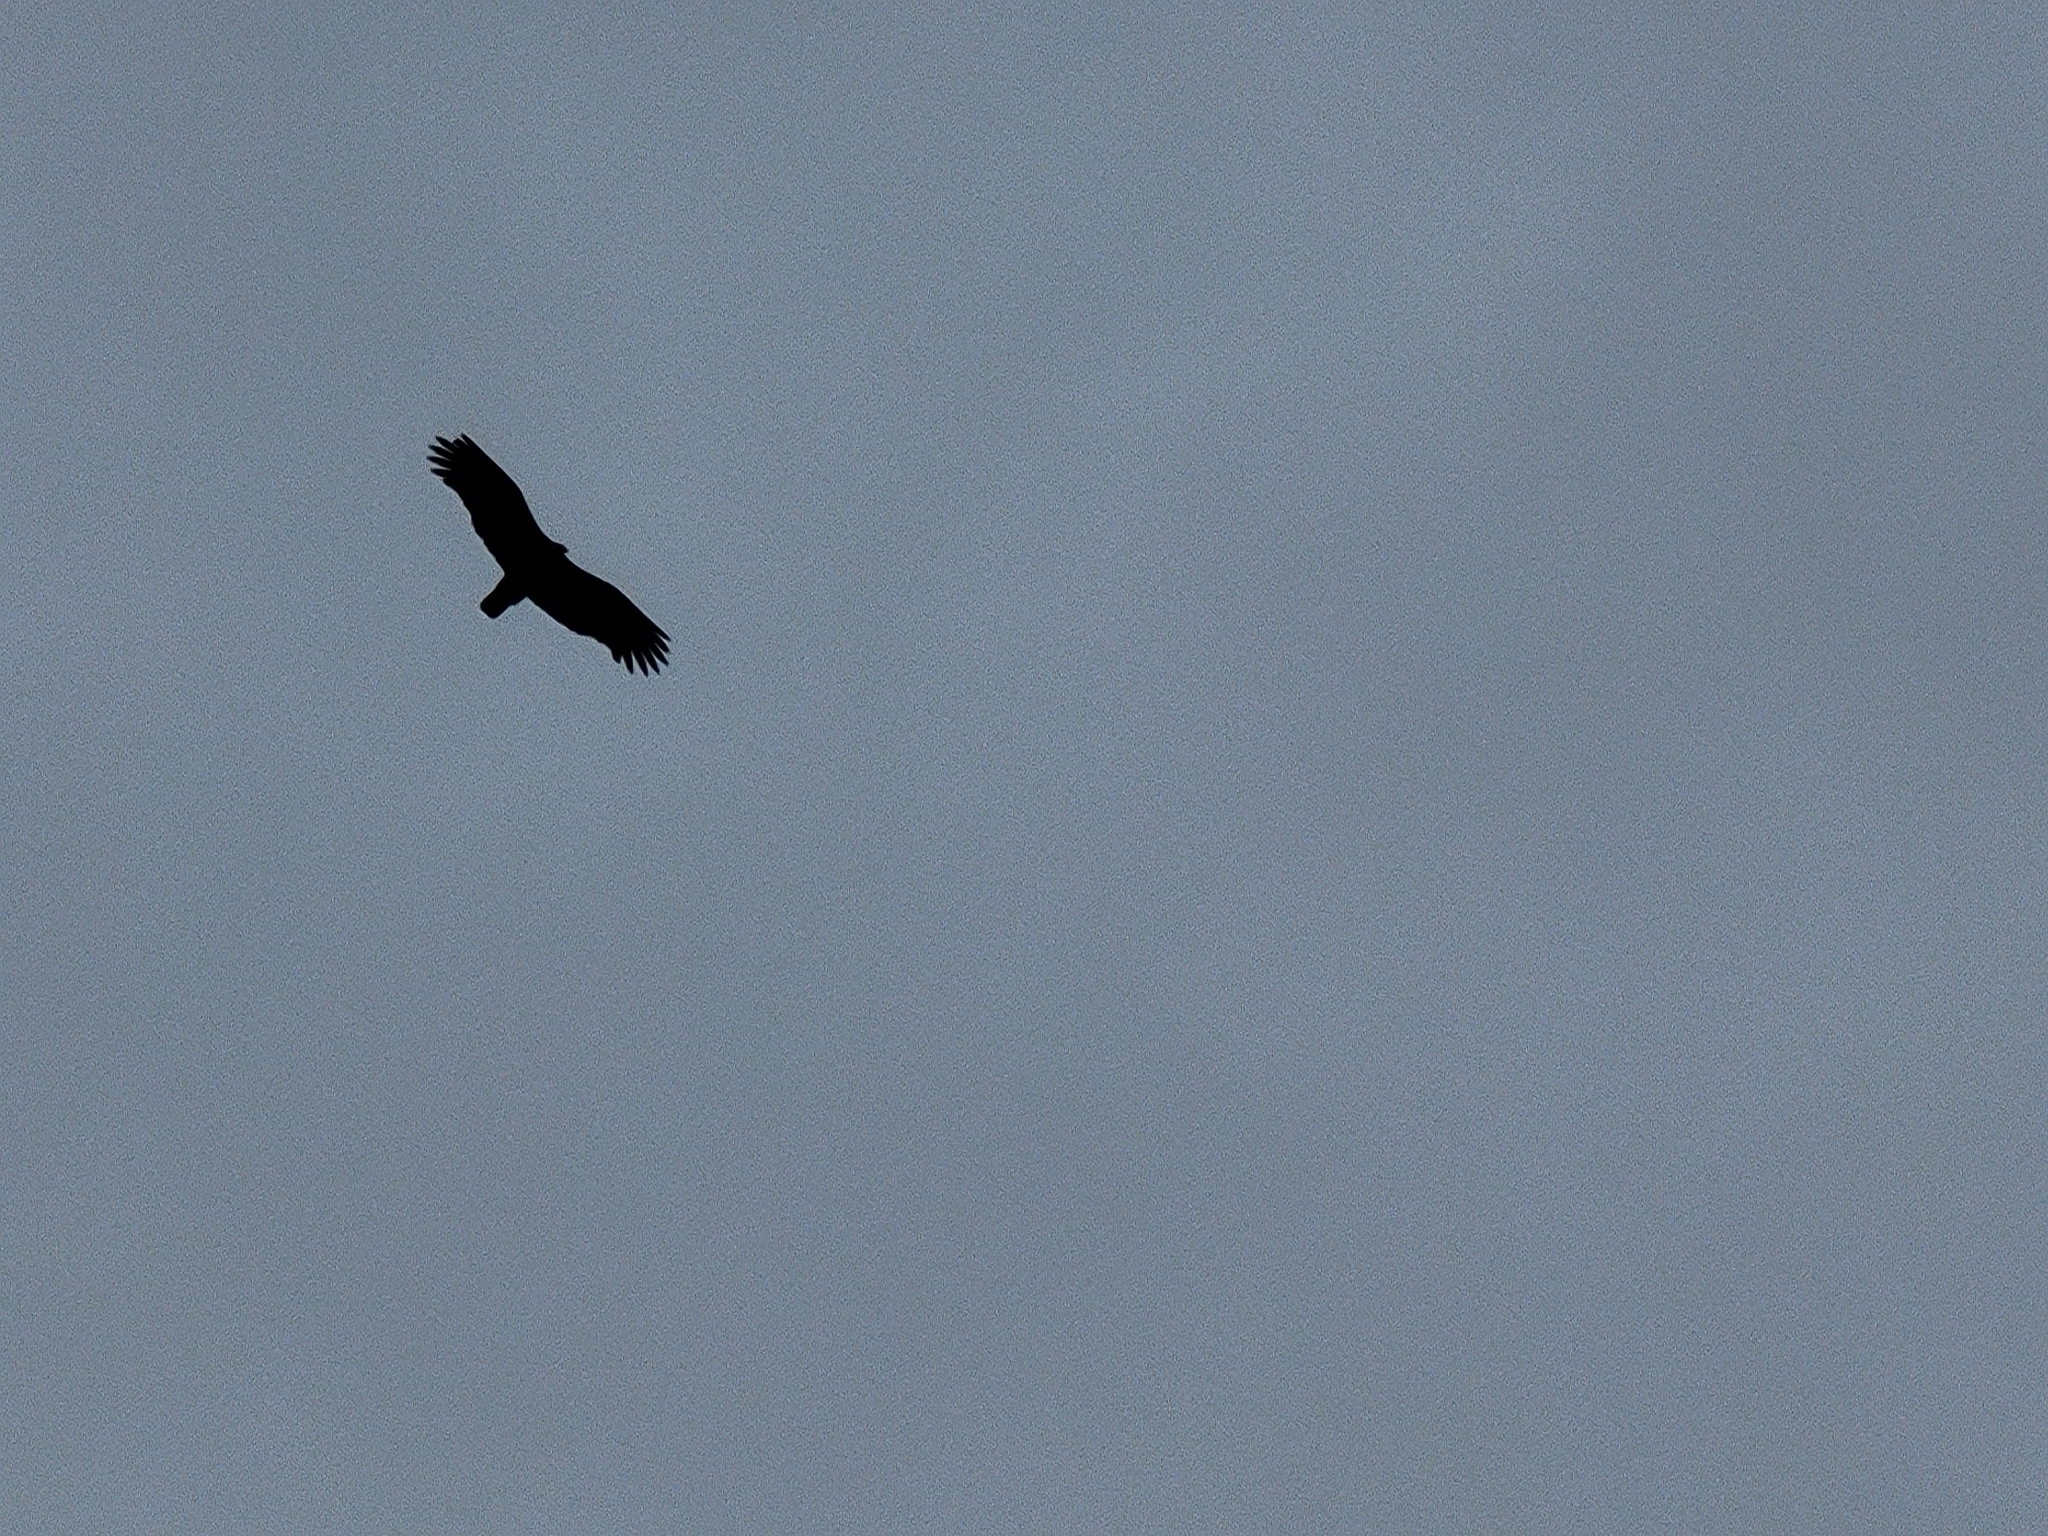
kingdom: Animalia
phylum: Chordata
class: Aves
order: Accipitriformes
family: Cathartidae
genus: Cathartes
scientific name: Cathartes aura
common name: Turkey vulture
